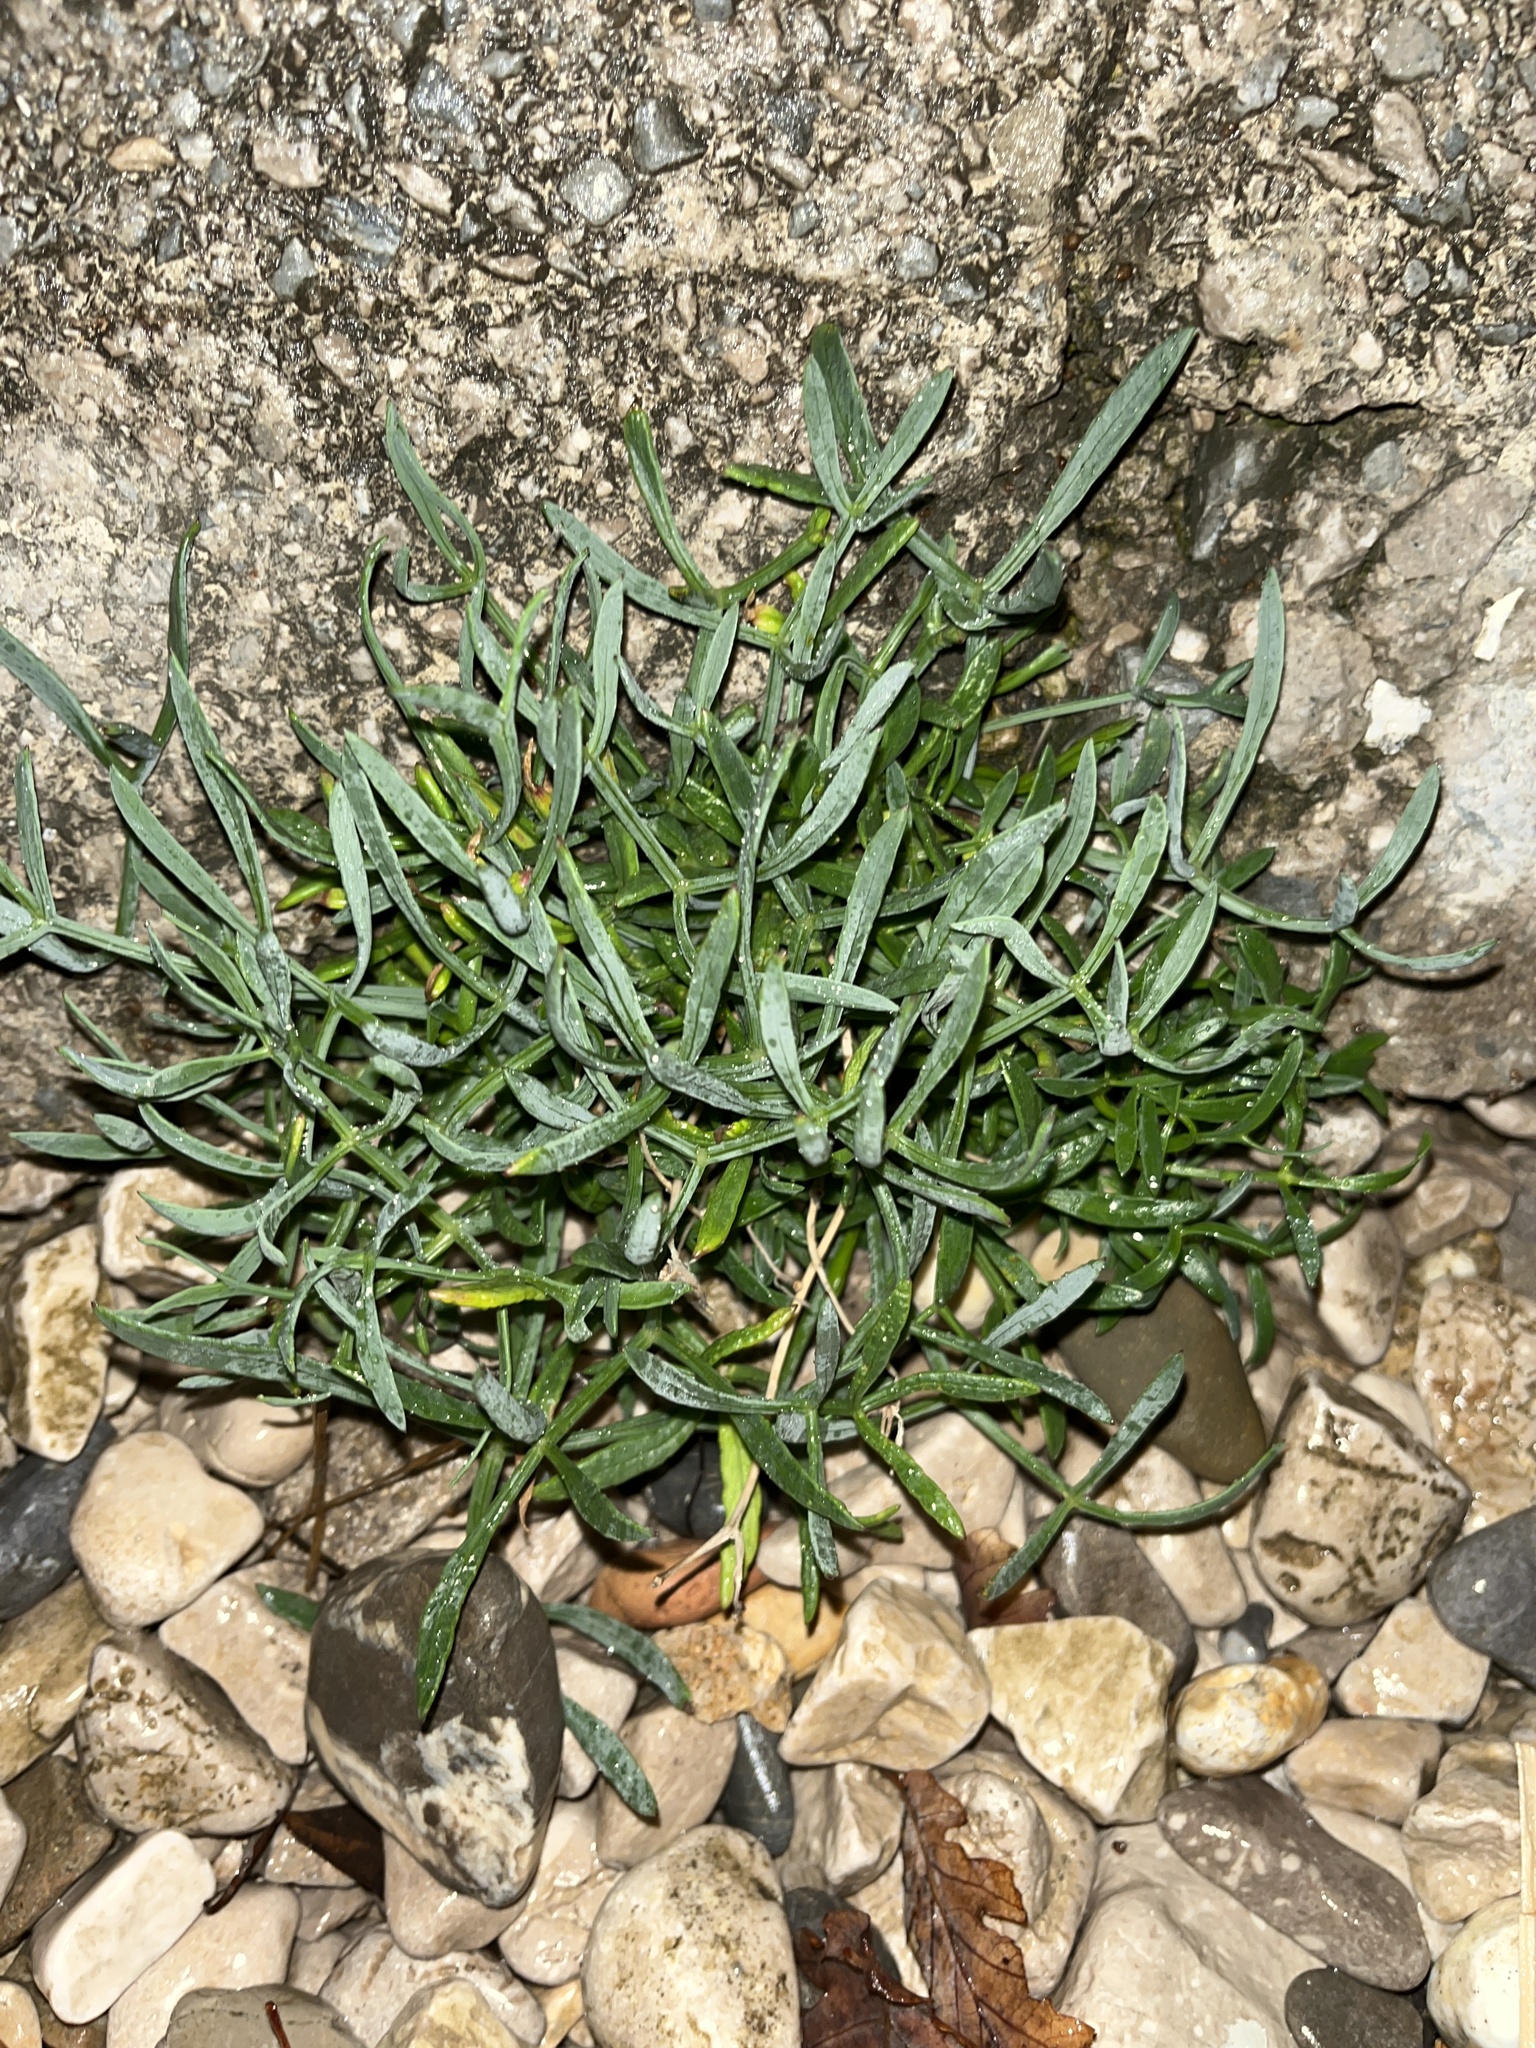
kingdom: Plantae
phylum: Tracheophyta
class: Magnoliopsida
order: Apiales
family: Apiaceae
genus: Crithmum
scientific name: Crithmum maritimum
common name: Rock samphire
